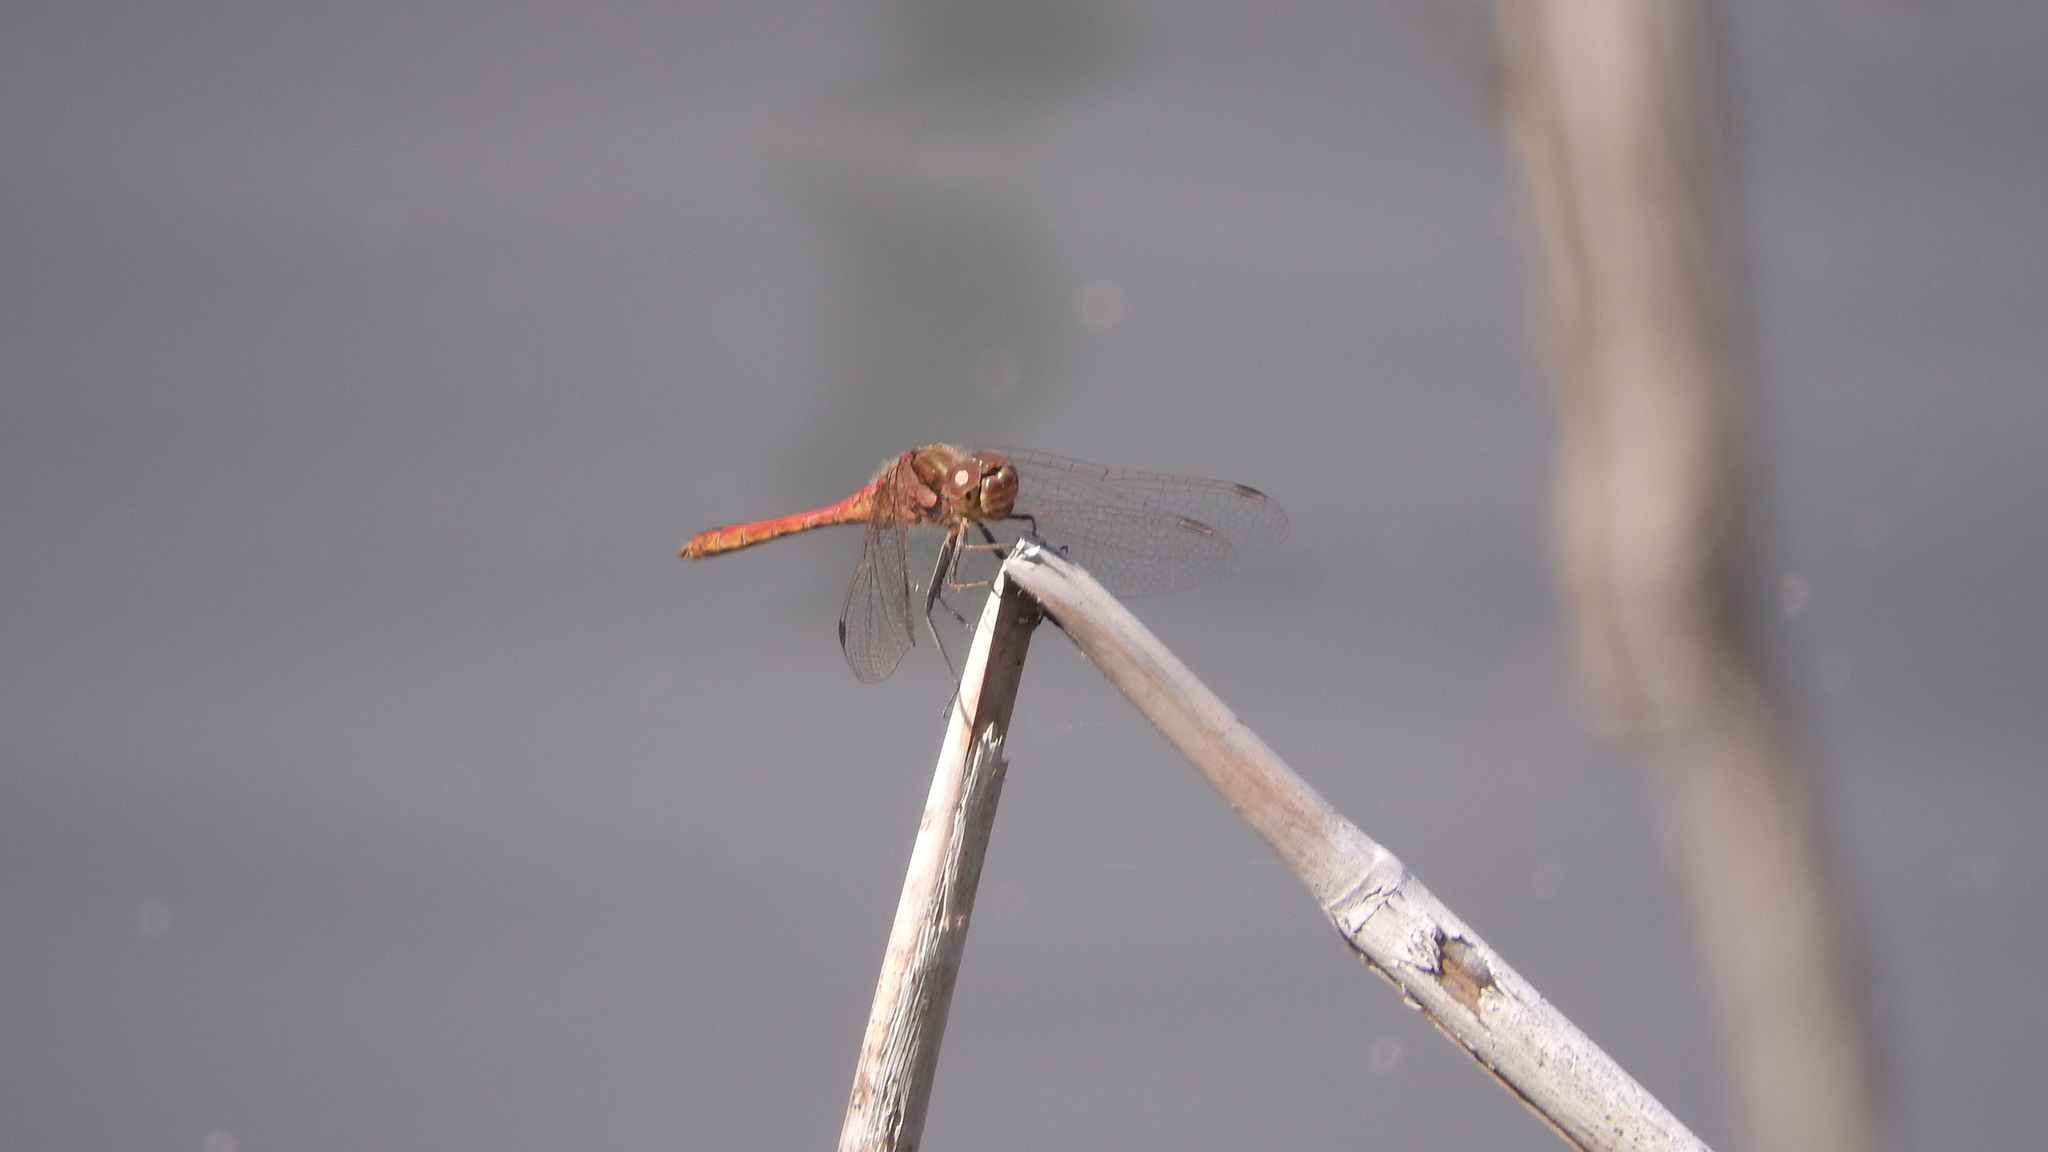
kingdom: Animalia
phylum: Arthropoda
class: Insecta
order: Odonata
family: Libellulidae
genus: Sympetrum
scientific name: Sympetrum vulgatum
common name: Vagrant darter
